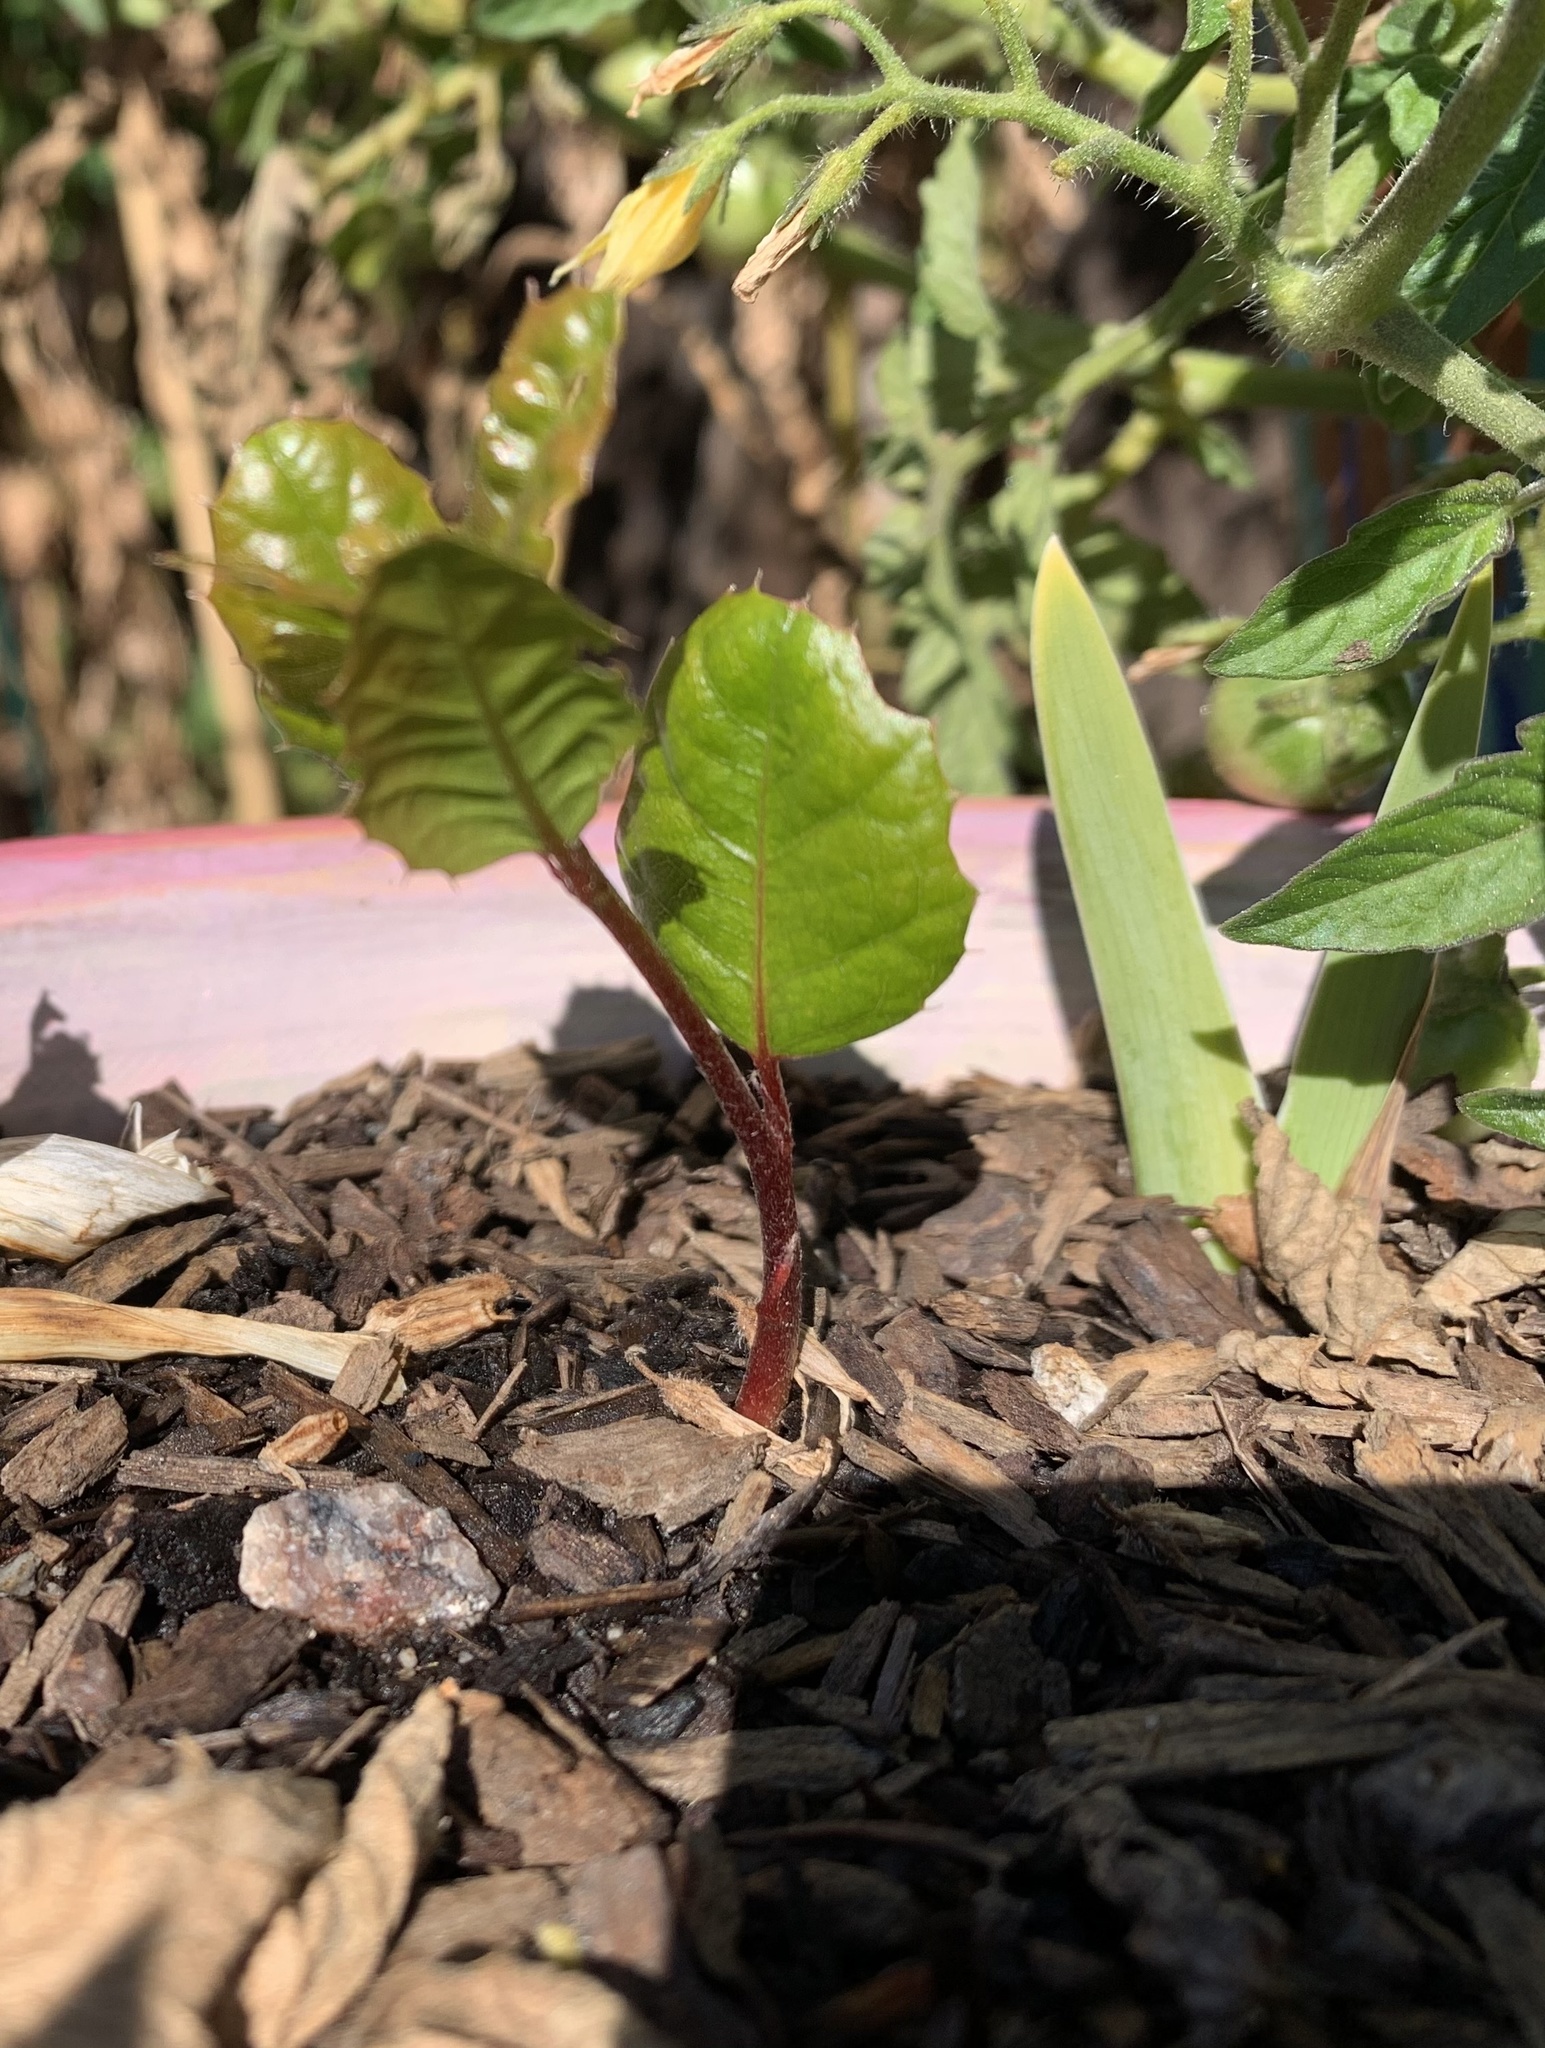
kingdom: Plantae
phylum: Tracheophyta
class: Magnoliopsida
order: Fagales
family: Fagaceae
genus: Quercus
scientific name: Quercus agrifolia
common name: California live oak
